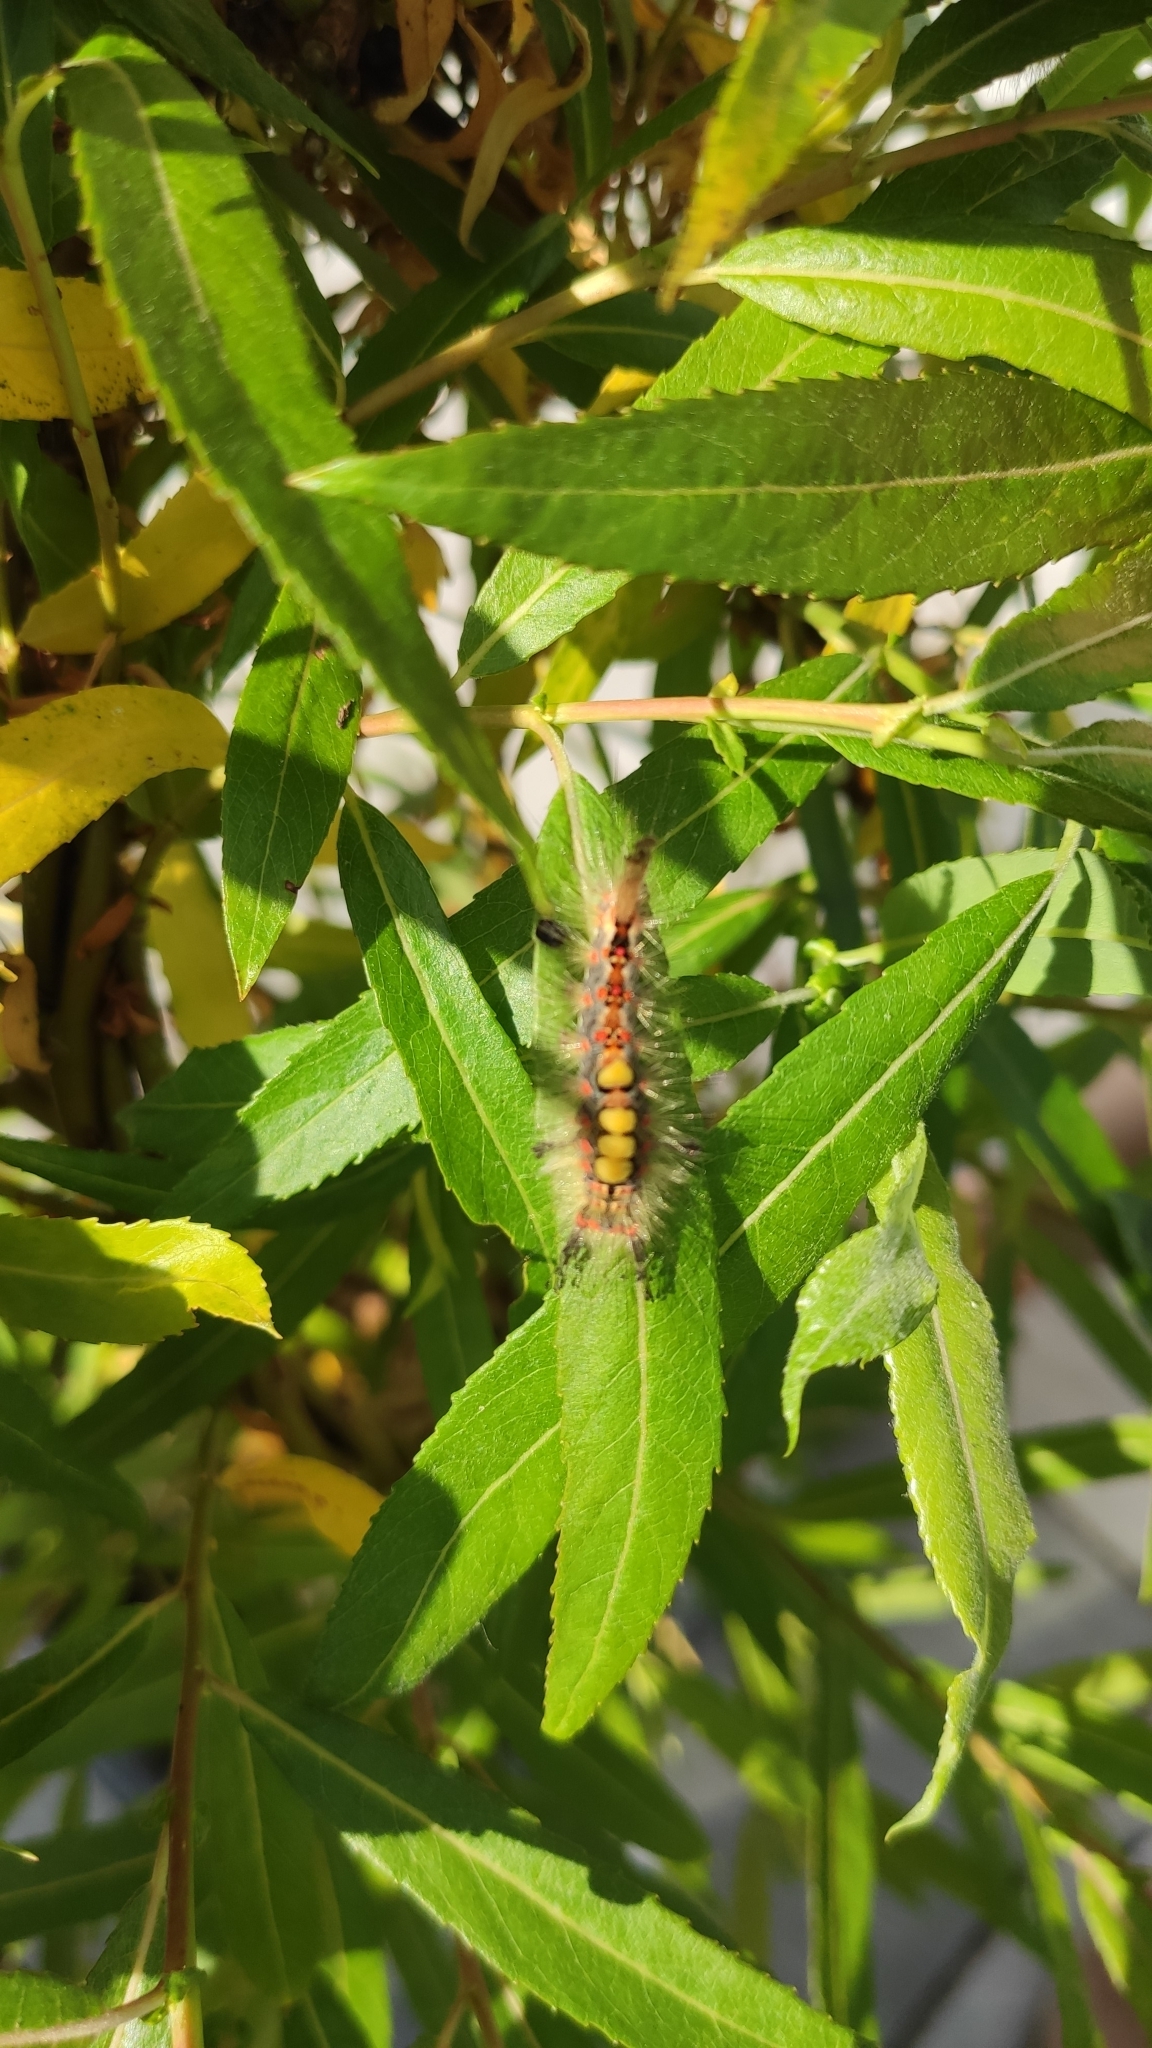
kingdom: Animalia
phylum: Arthropoda
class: Insecta
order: Lepidoptera
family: Erebidae
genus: Orgyia
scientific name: Orgyia antiqua
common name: Vapourer
